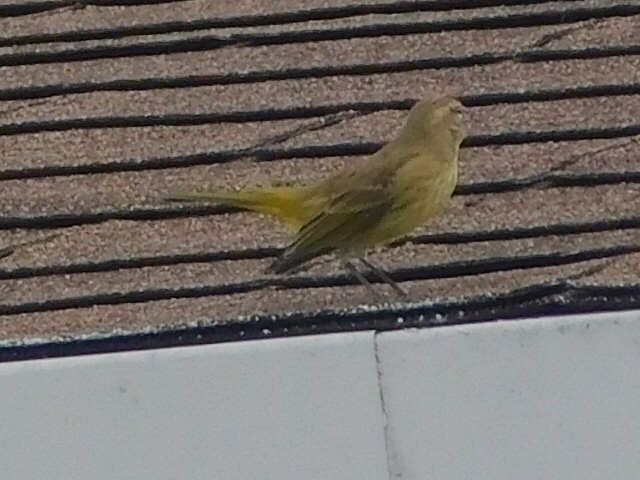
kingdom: Animalia
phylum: Chordata
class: Aves
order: Passeriformes
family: Parulidae
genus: Setophaga
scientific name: Setophaga palmarum
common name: Palm warbler
